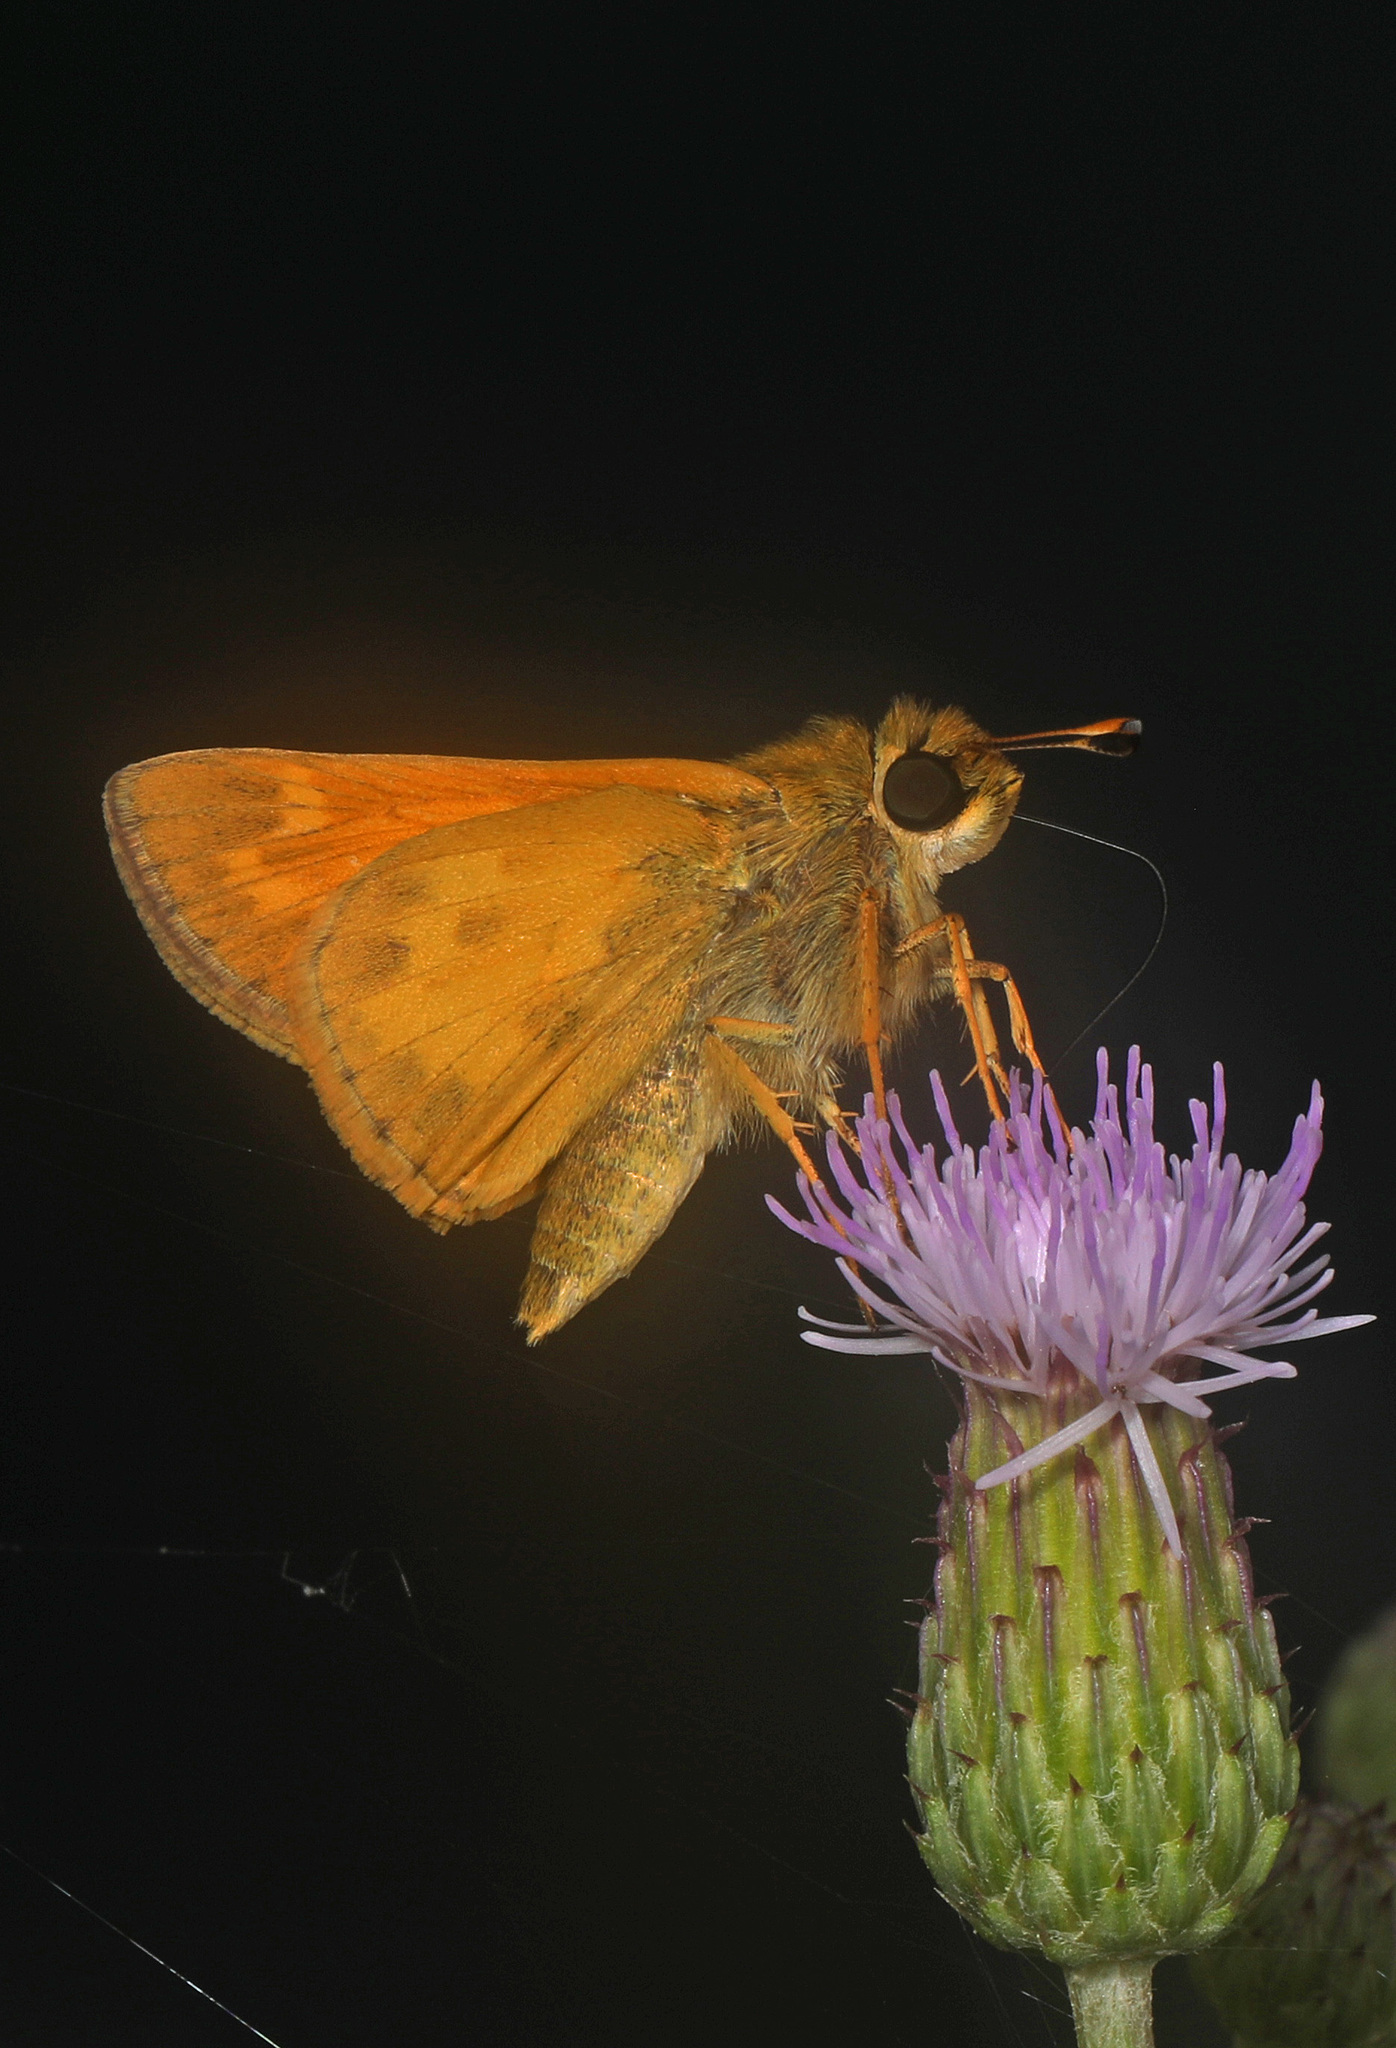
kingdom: Animalia
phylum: Arthropoda
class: Insecta
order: Lepidoptera
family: Hesperiidae
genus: Atalopedes
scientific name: Atalopedes
